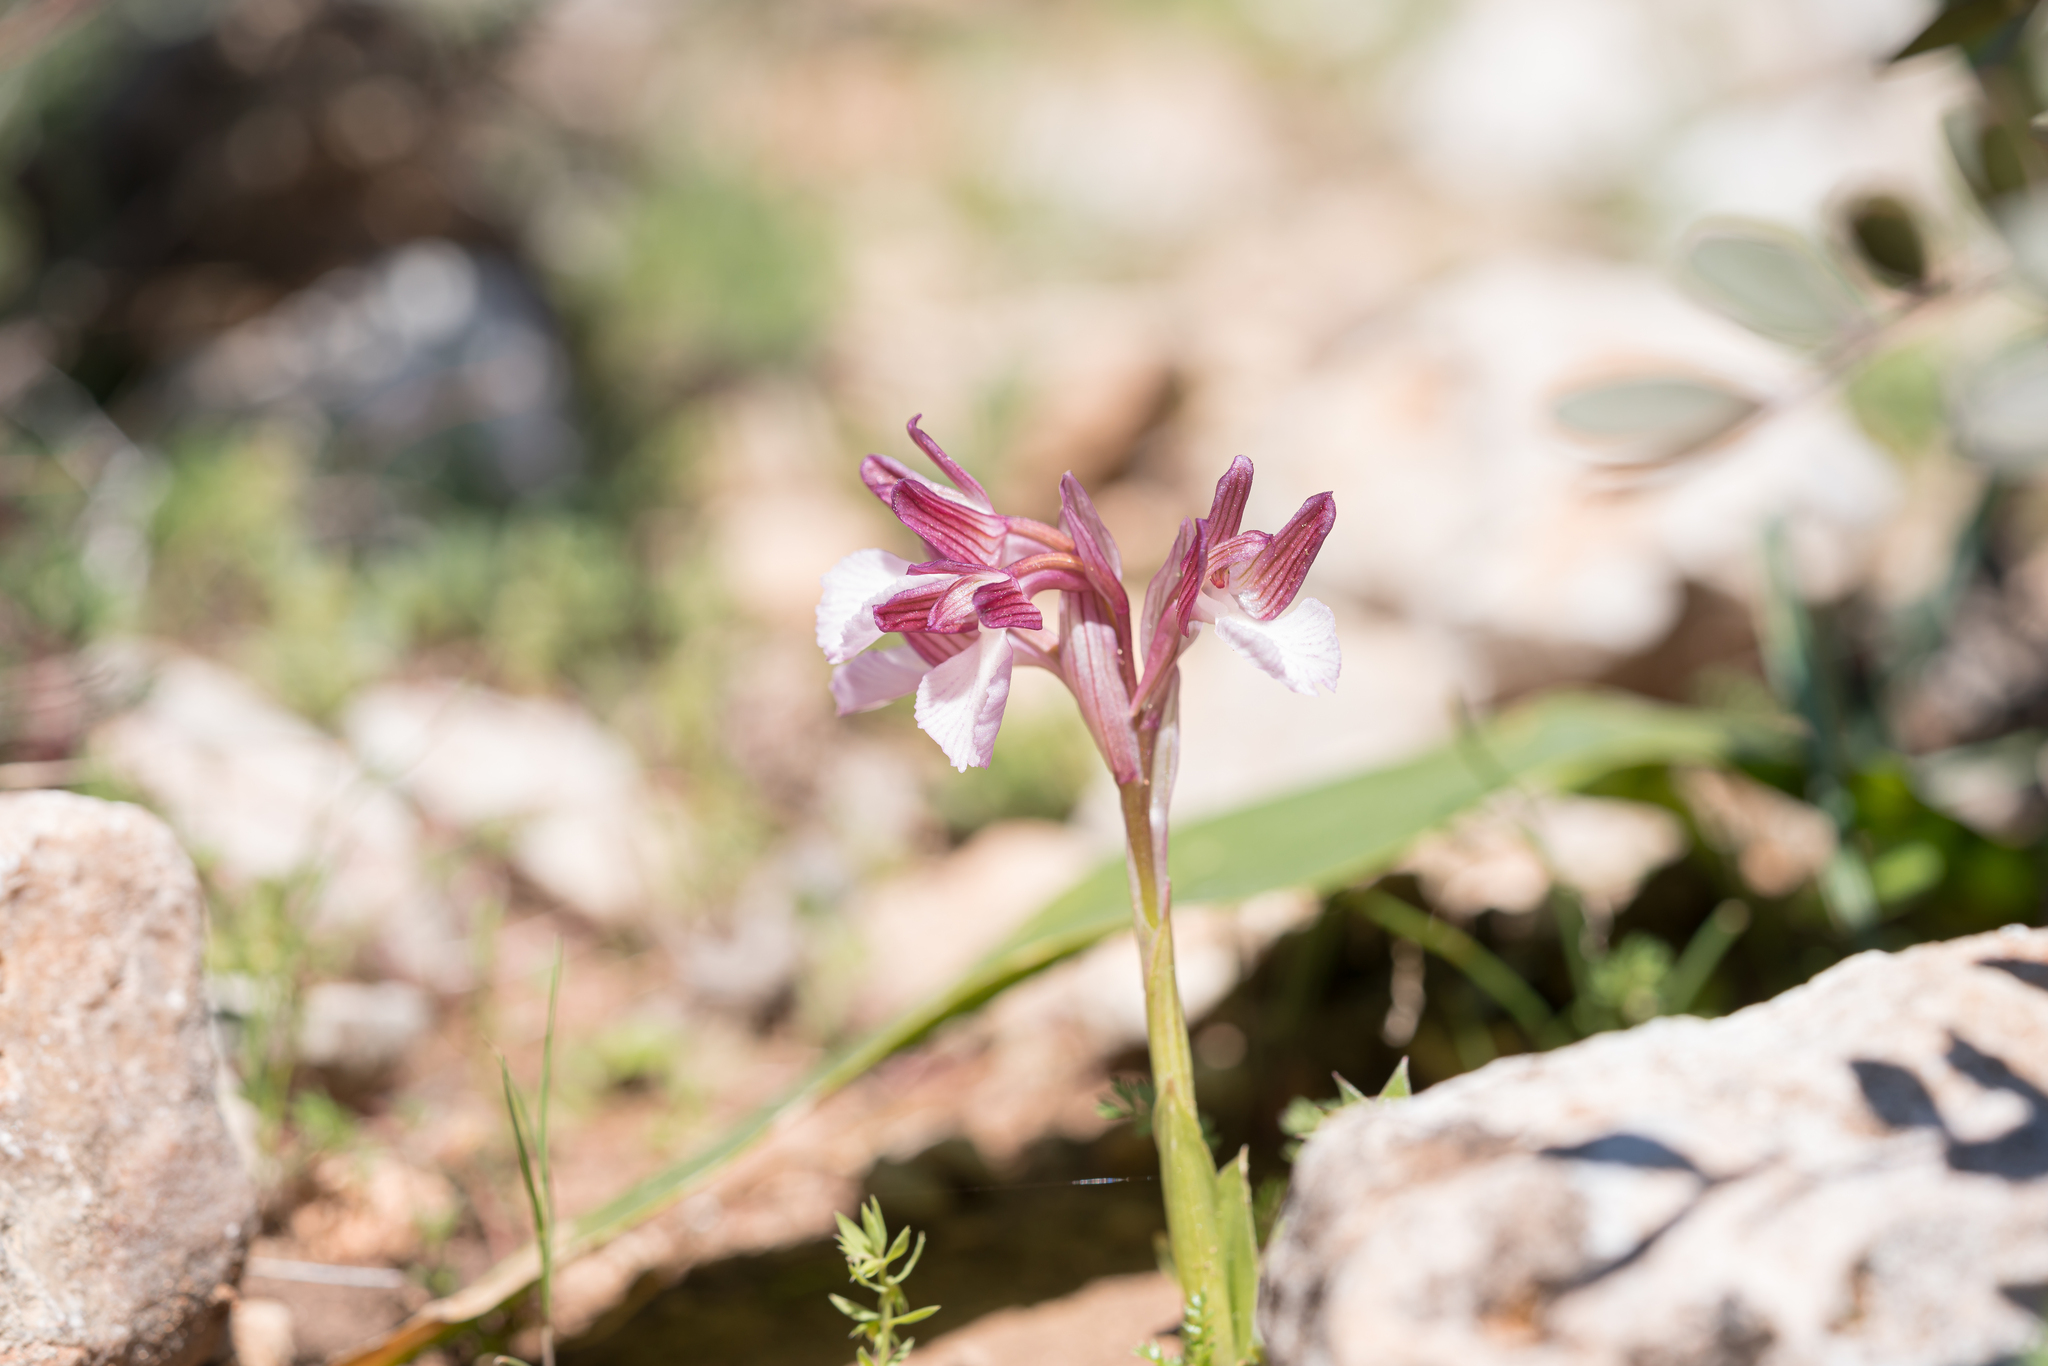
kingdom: Plantae
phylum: Tracheophyta
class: Liliopsida
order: Asparagales
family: Orchidaceae
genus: Anacamptis
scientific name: Anacamptis papilionacea
